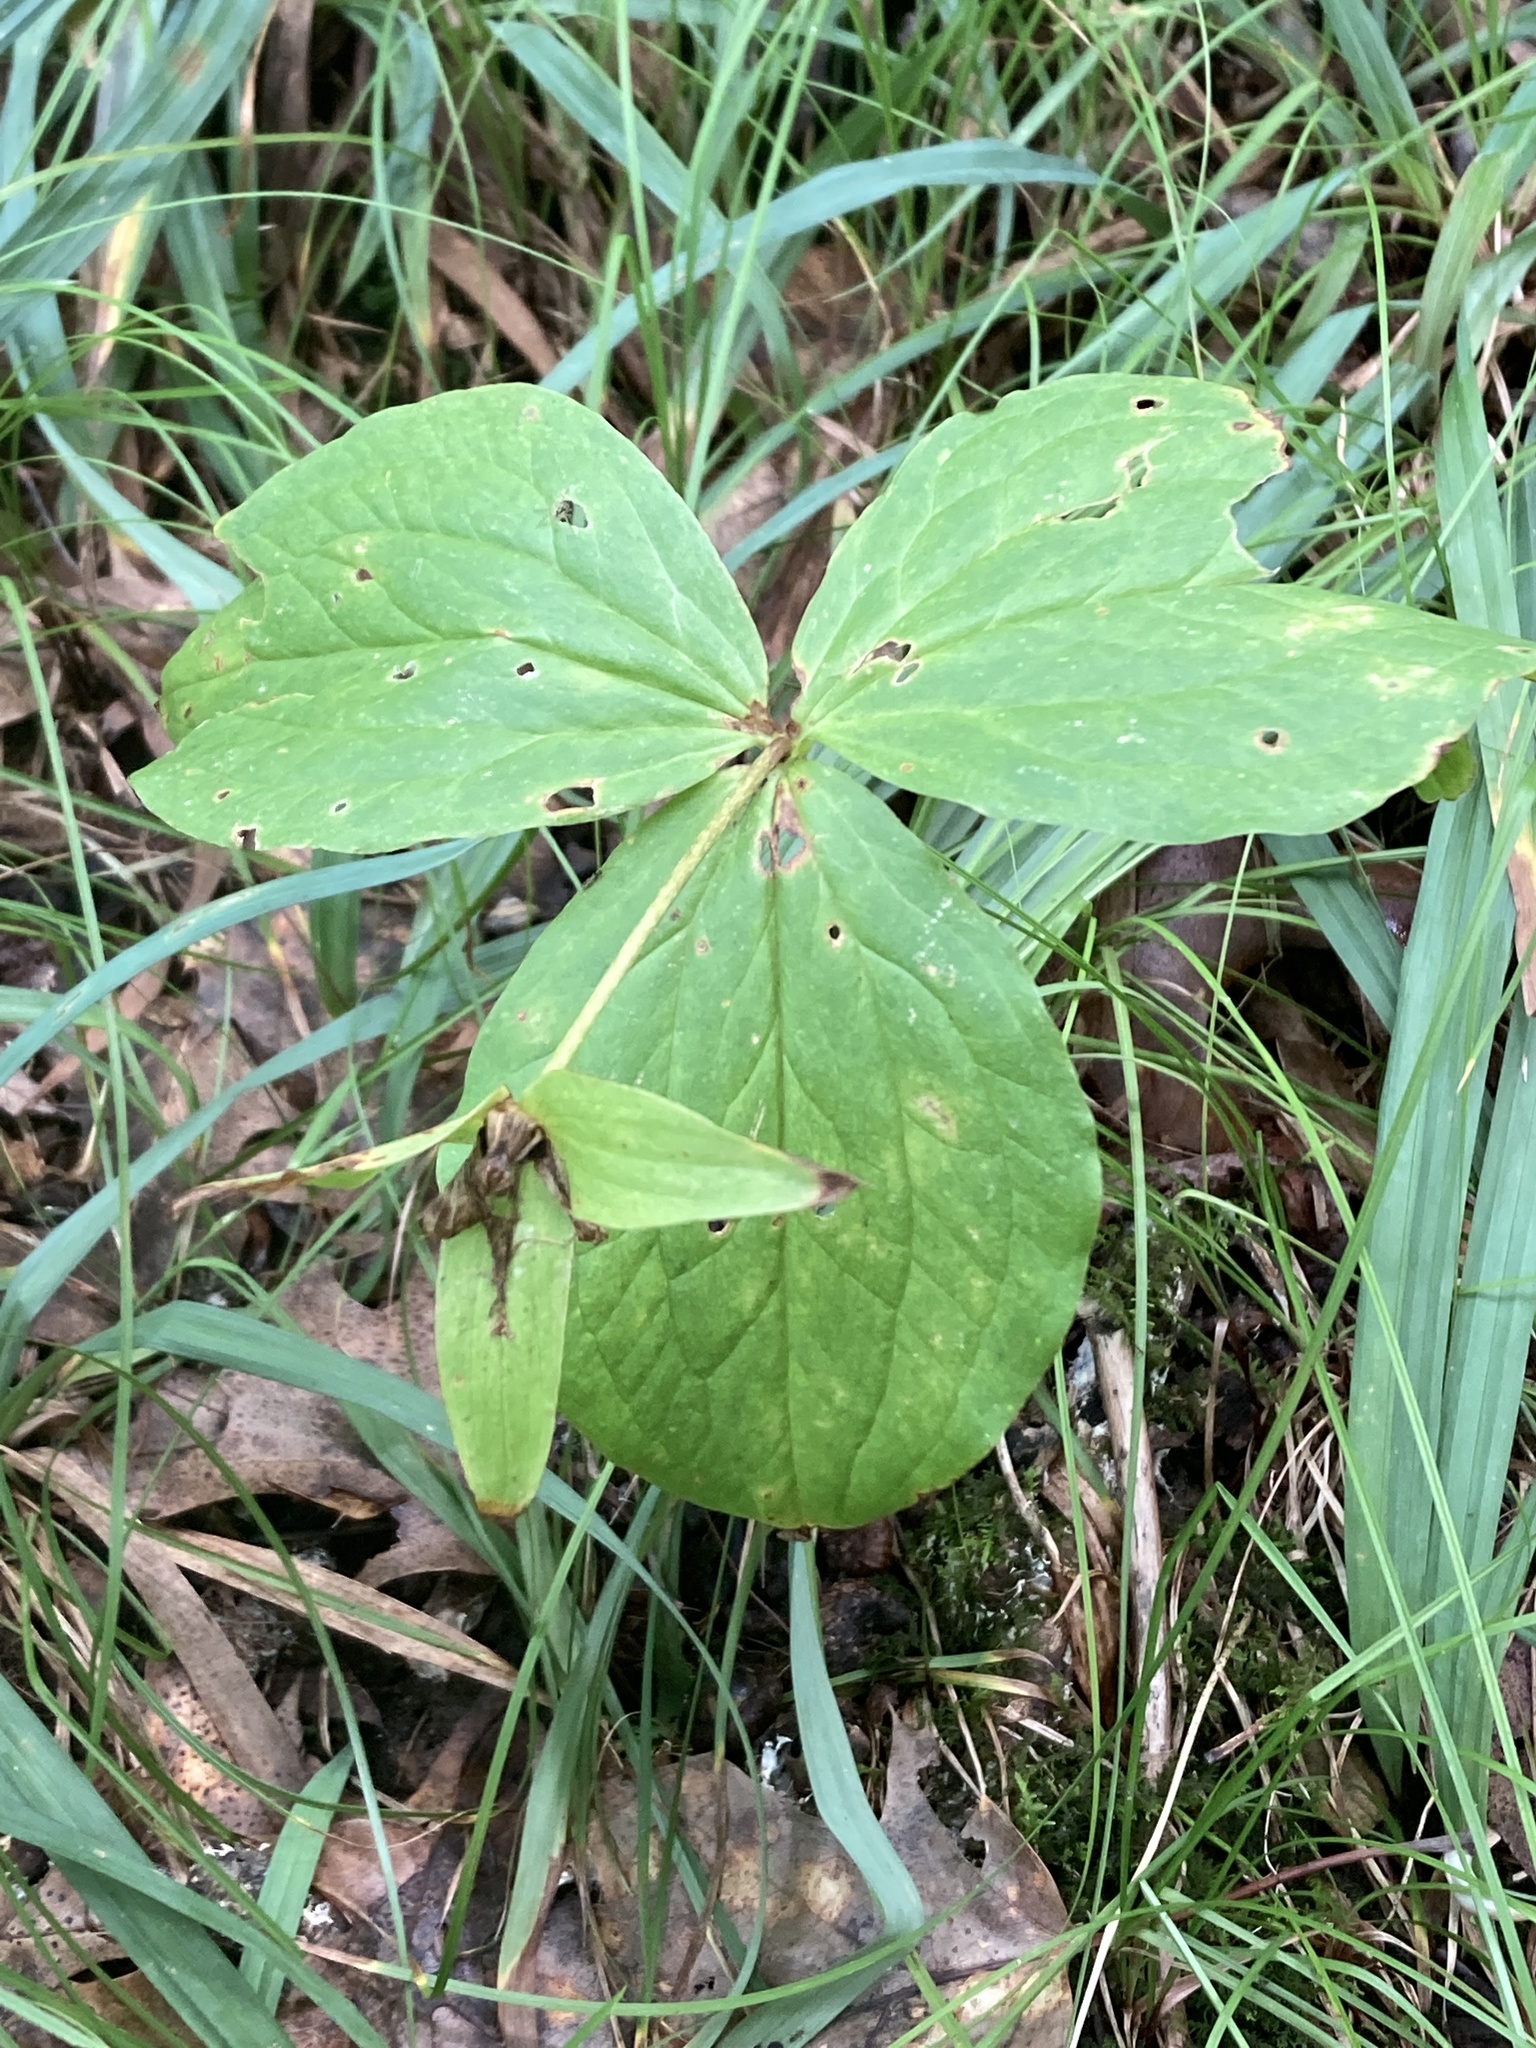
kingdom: Plantae
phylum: Tracheophyta
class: Liliopsida
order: Liliales
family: Melanthiaceae
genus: Trillium
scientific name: Trillium grandiflorum
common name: Great white trillium
